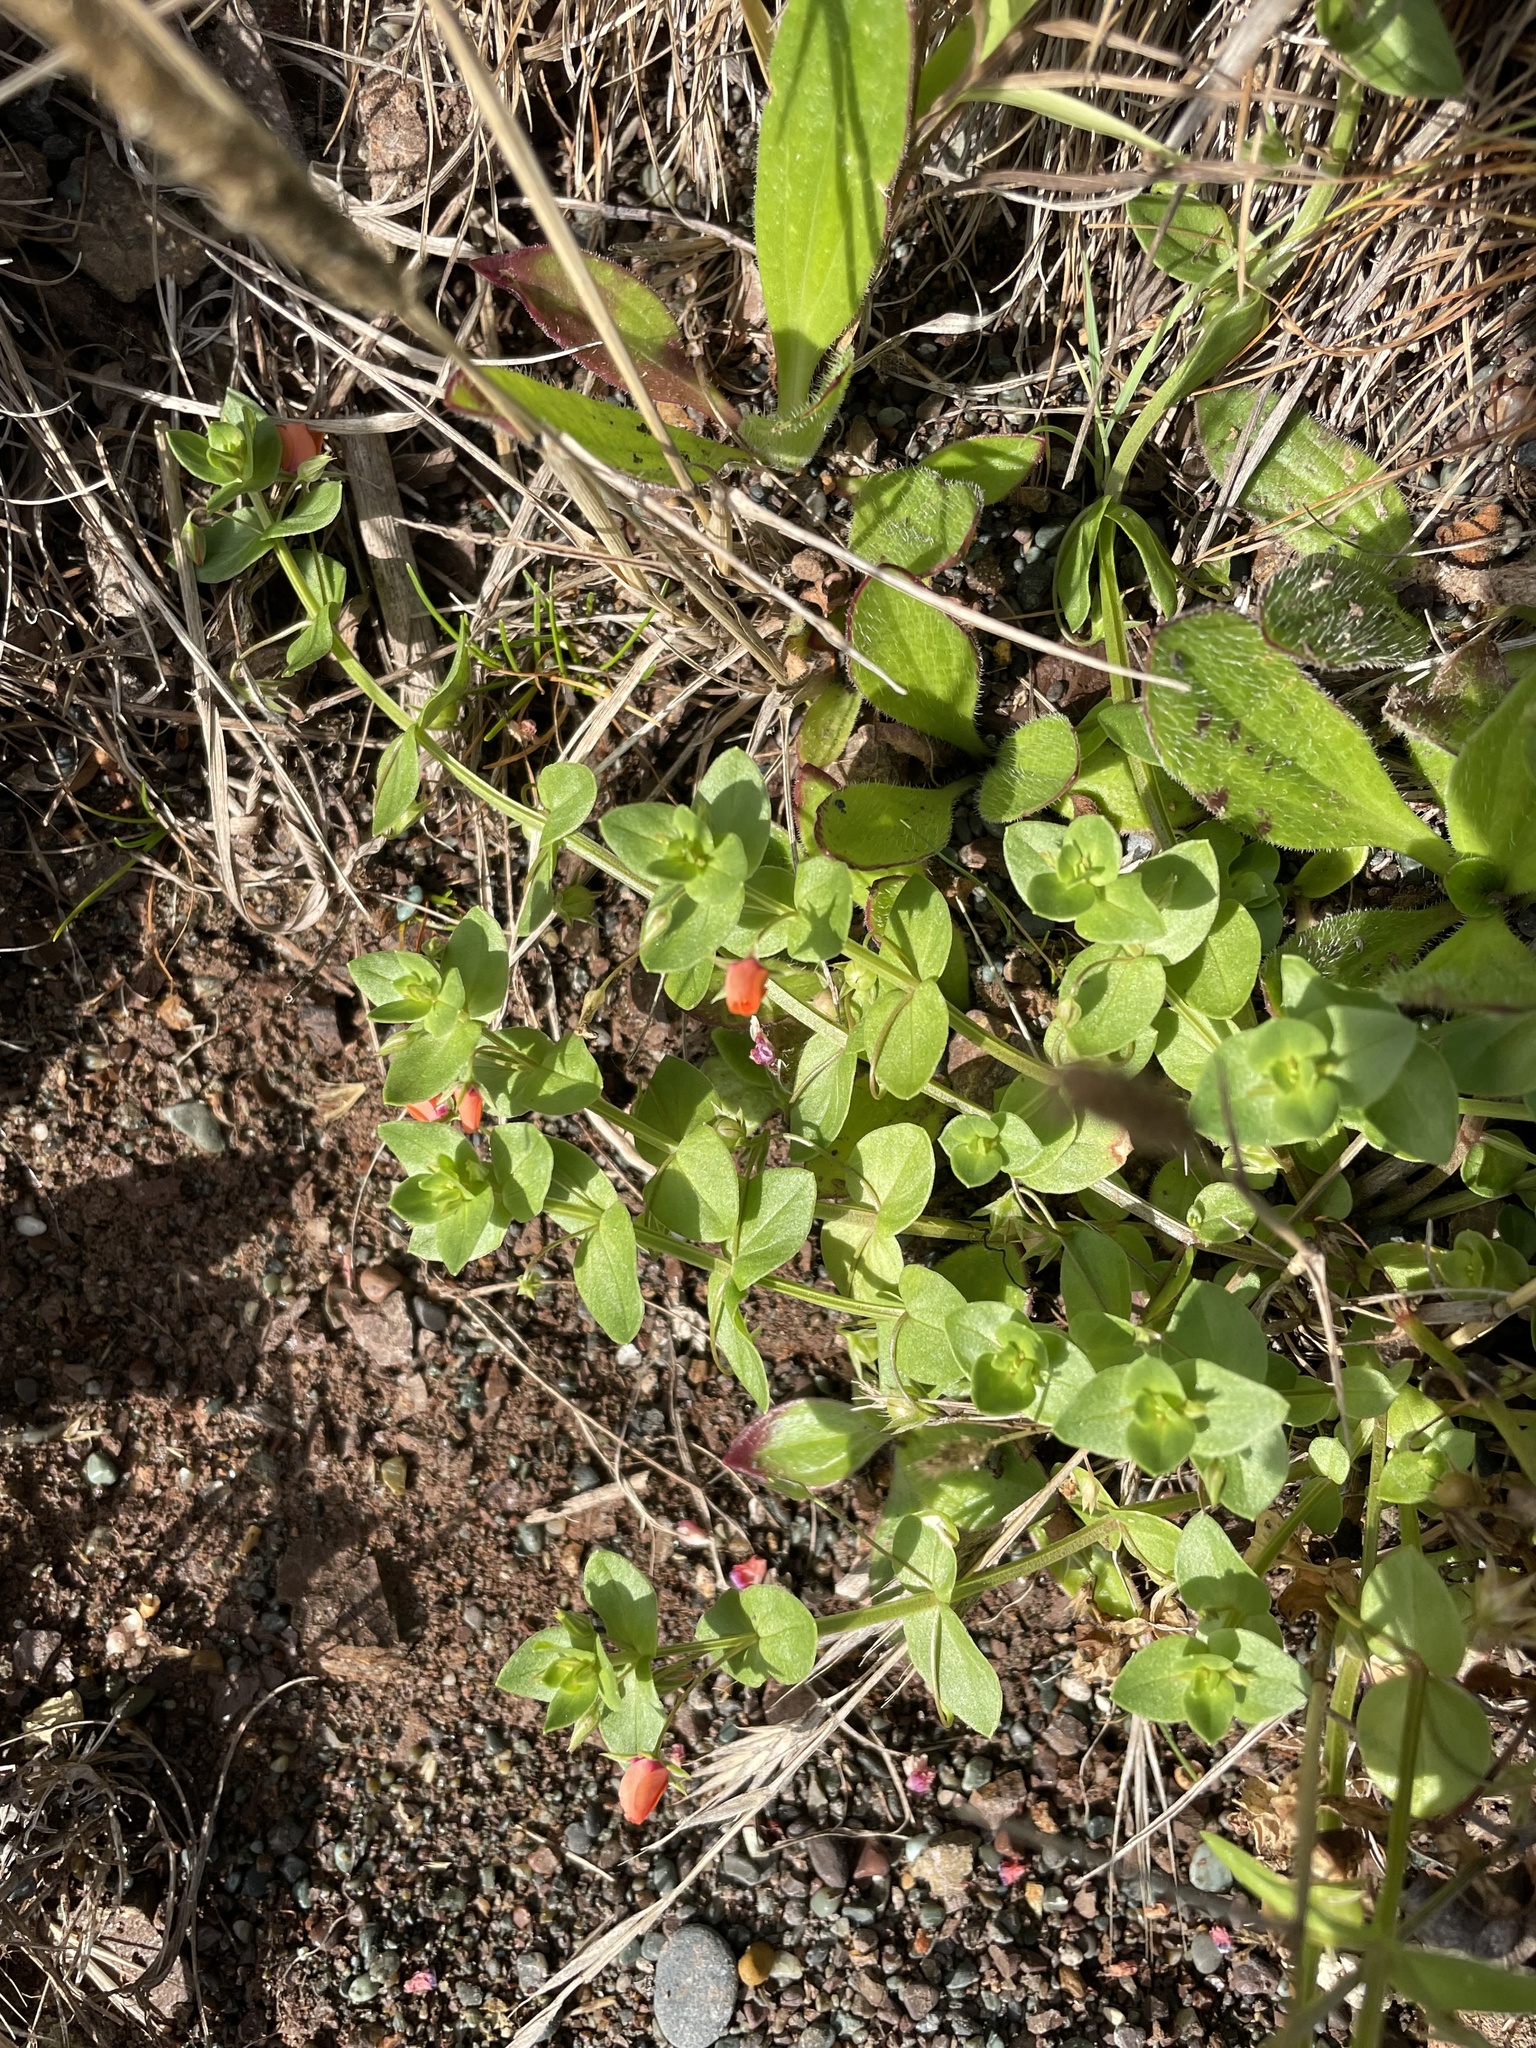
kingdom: Plantae
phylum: Tracheophyta
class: Magnoliopsida
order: Ericales
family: Primulaceae
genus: Lysimachia
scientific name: Lysimachia arvensis
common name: Scarlet pimpernel
